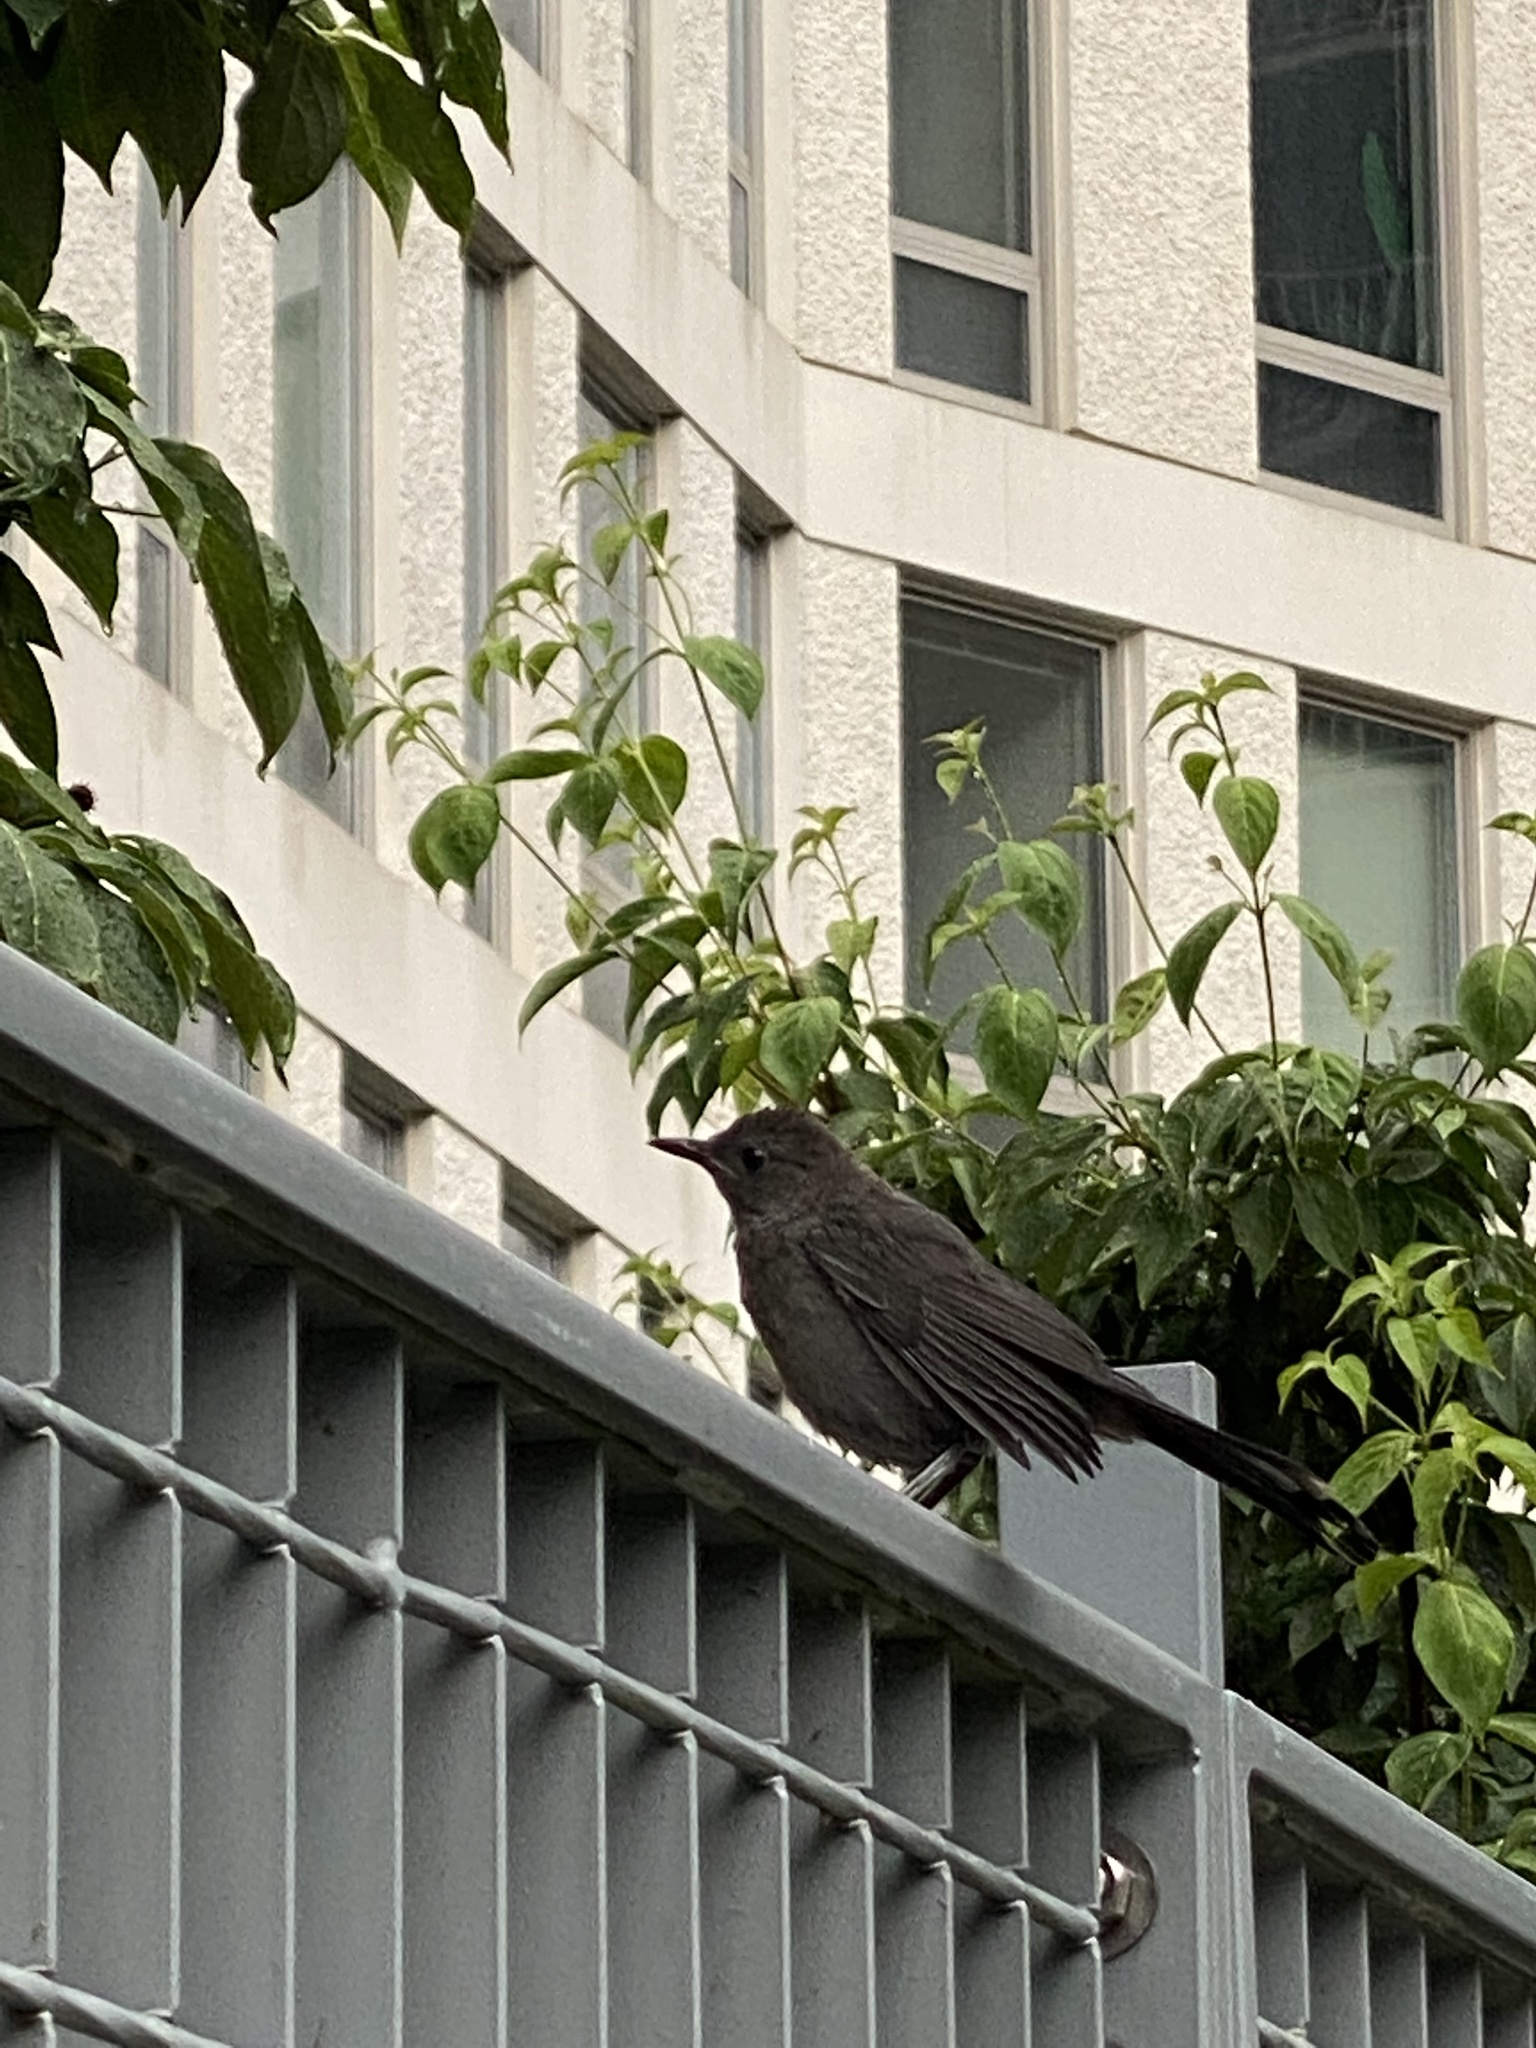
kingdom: Animalia
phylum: Chordata
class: Aves
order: Passeriformes
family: Mimidae
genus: Dumetella
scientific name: Dumetella carolinensis
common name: Gray catbird
